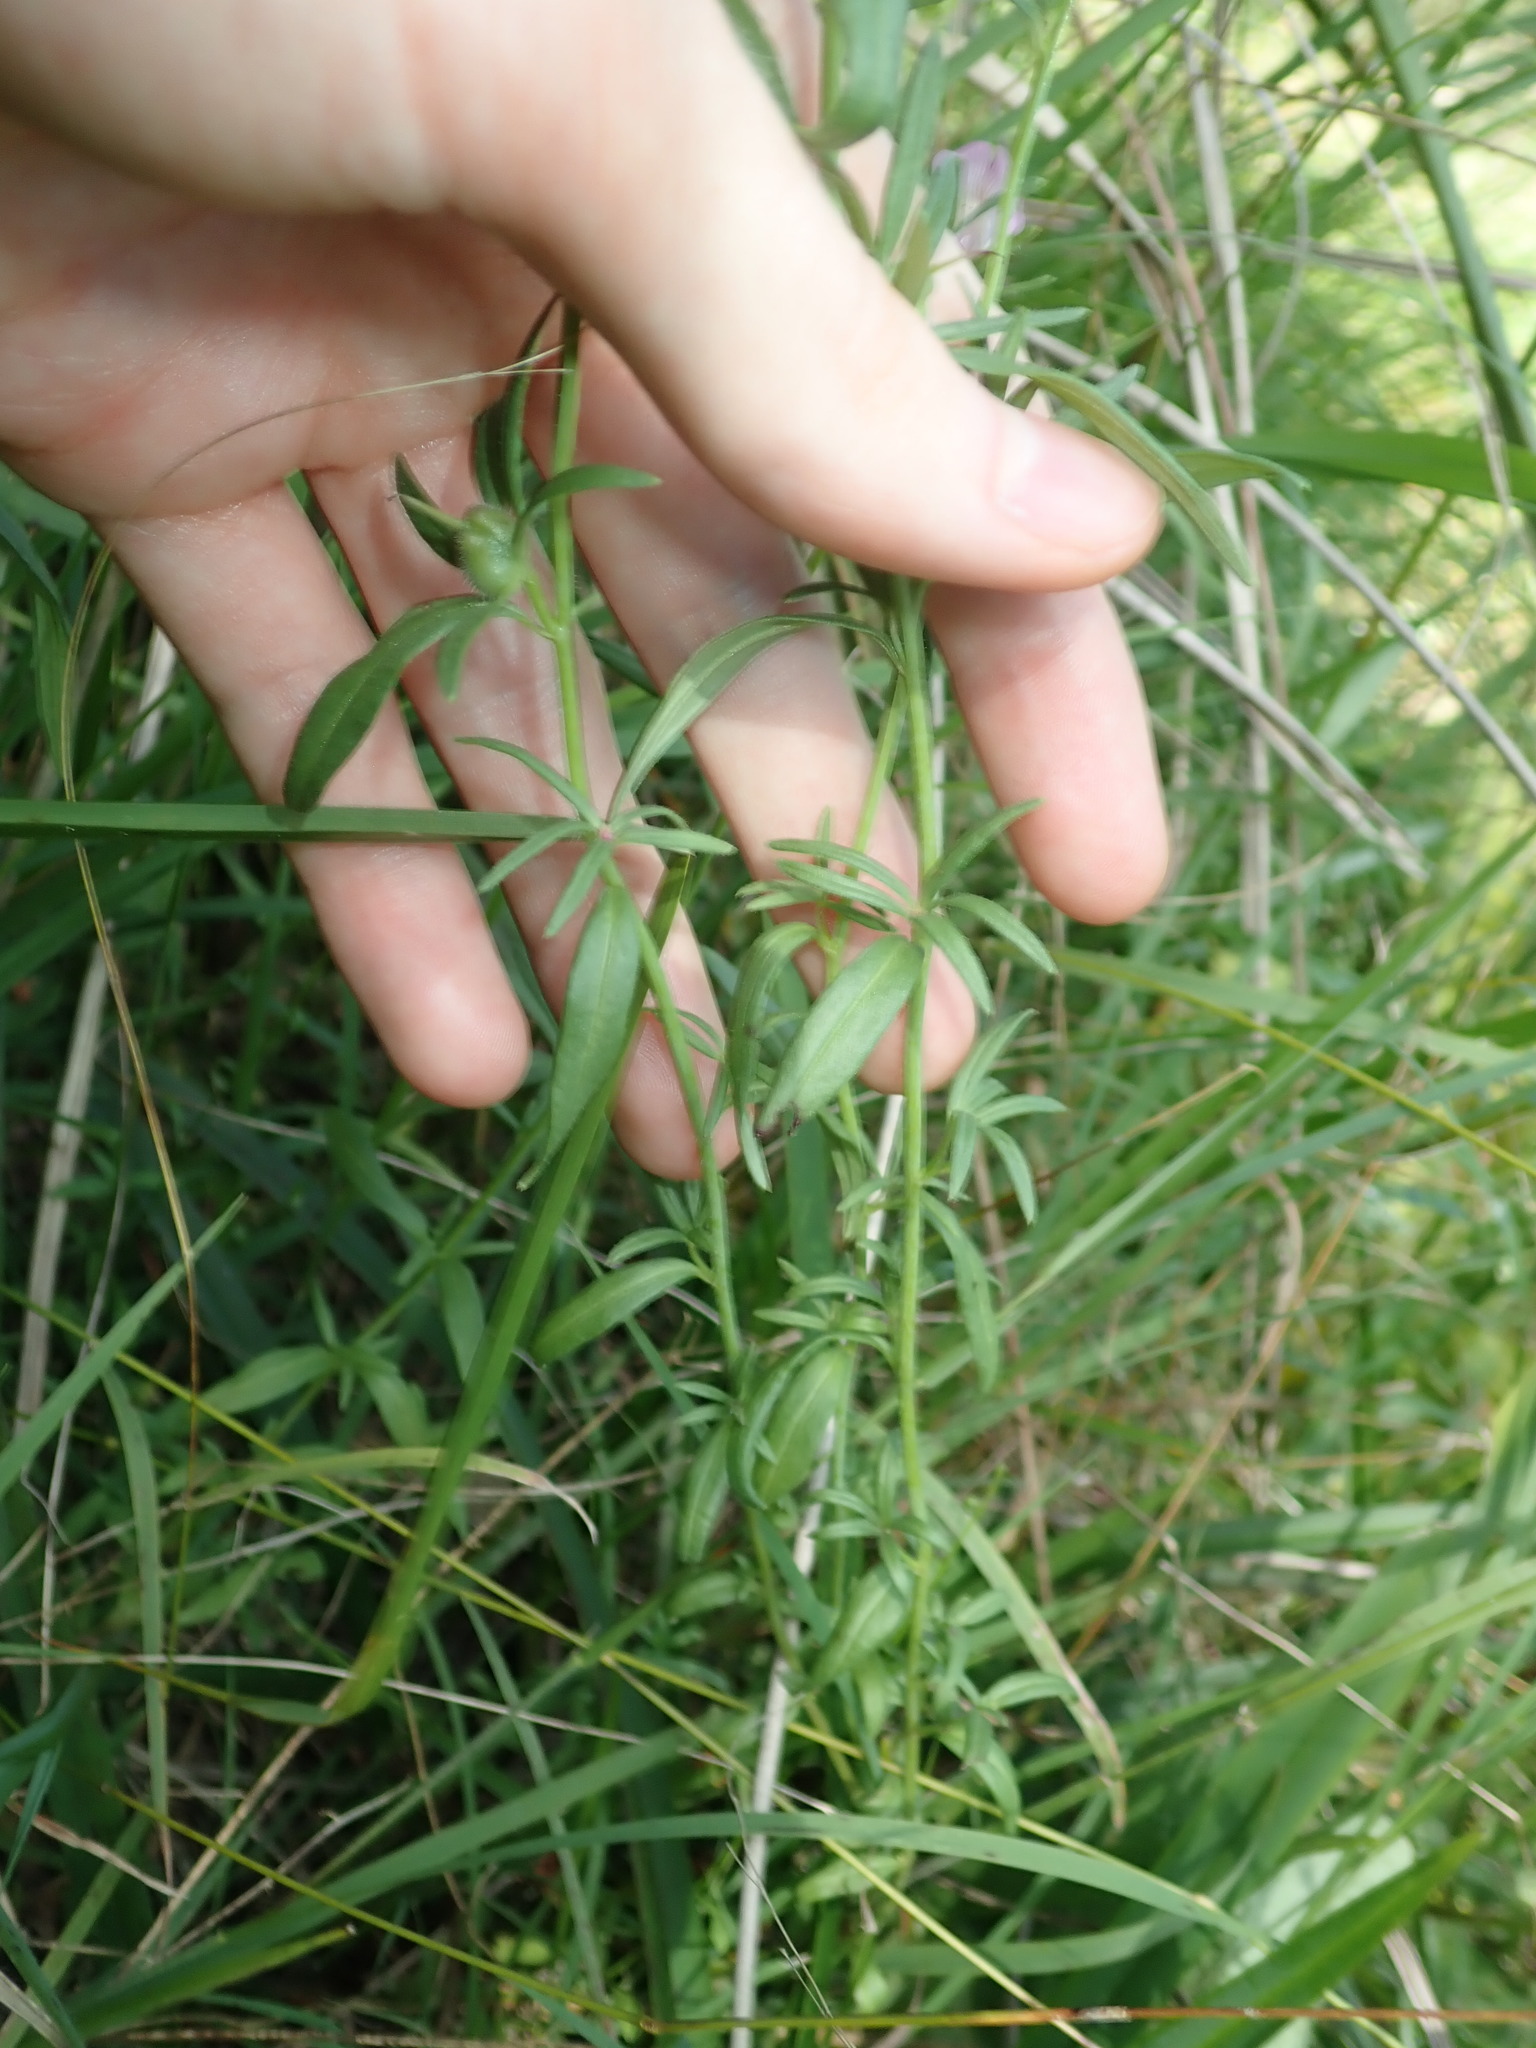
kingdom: Plantae
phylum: Tracheophyta
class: Magnoliopsida
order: Lamiales
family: Plantaginaceae
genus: Misopates
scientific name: Misopates orontium
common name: Weasel's-snout
